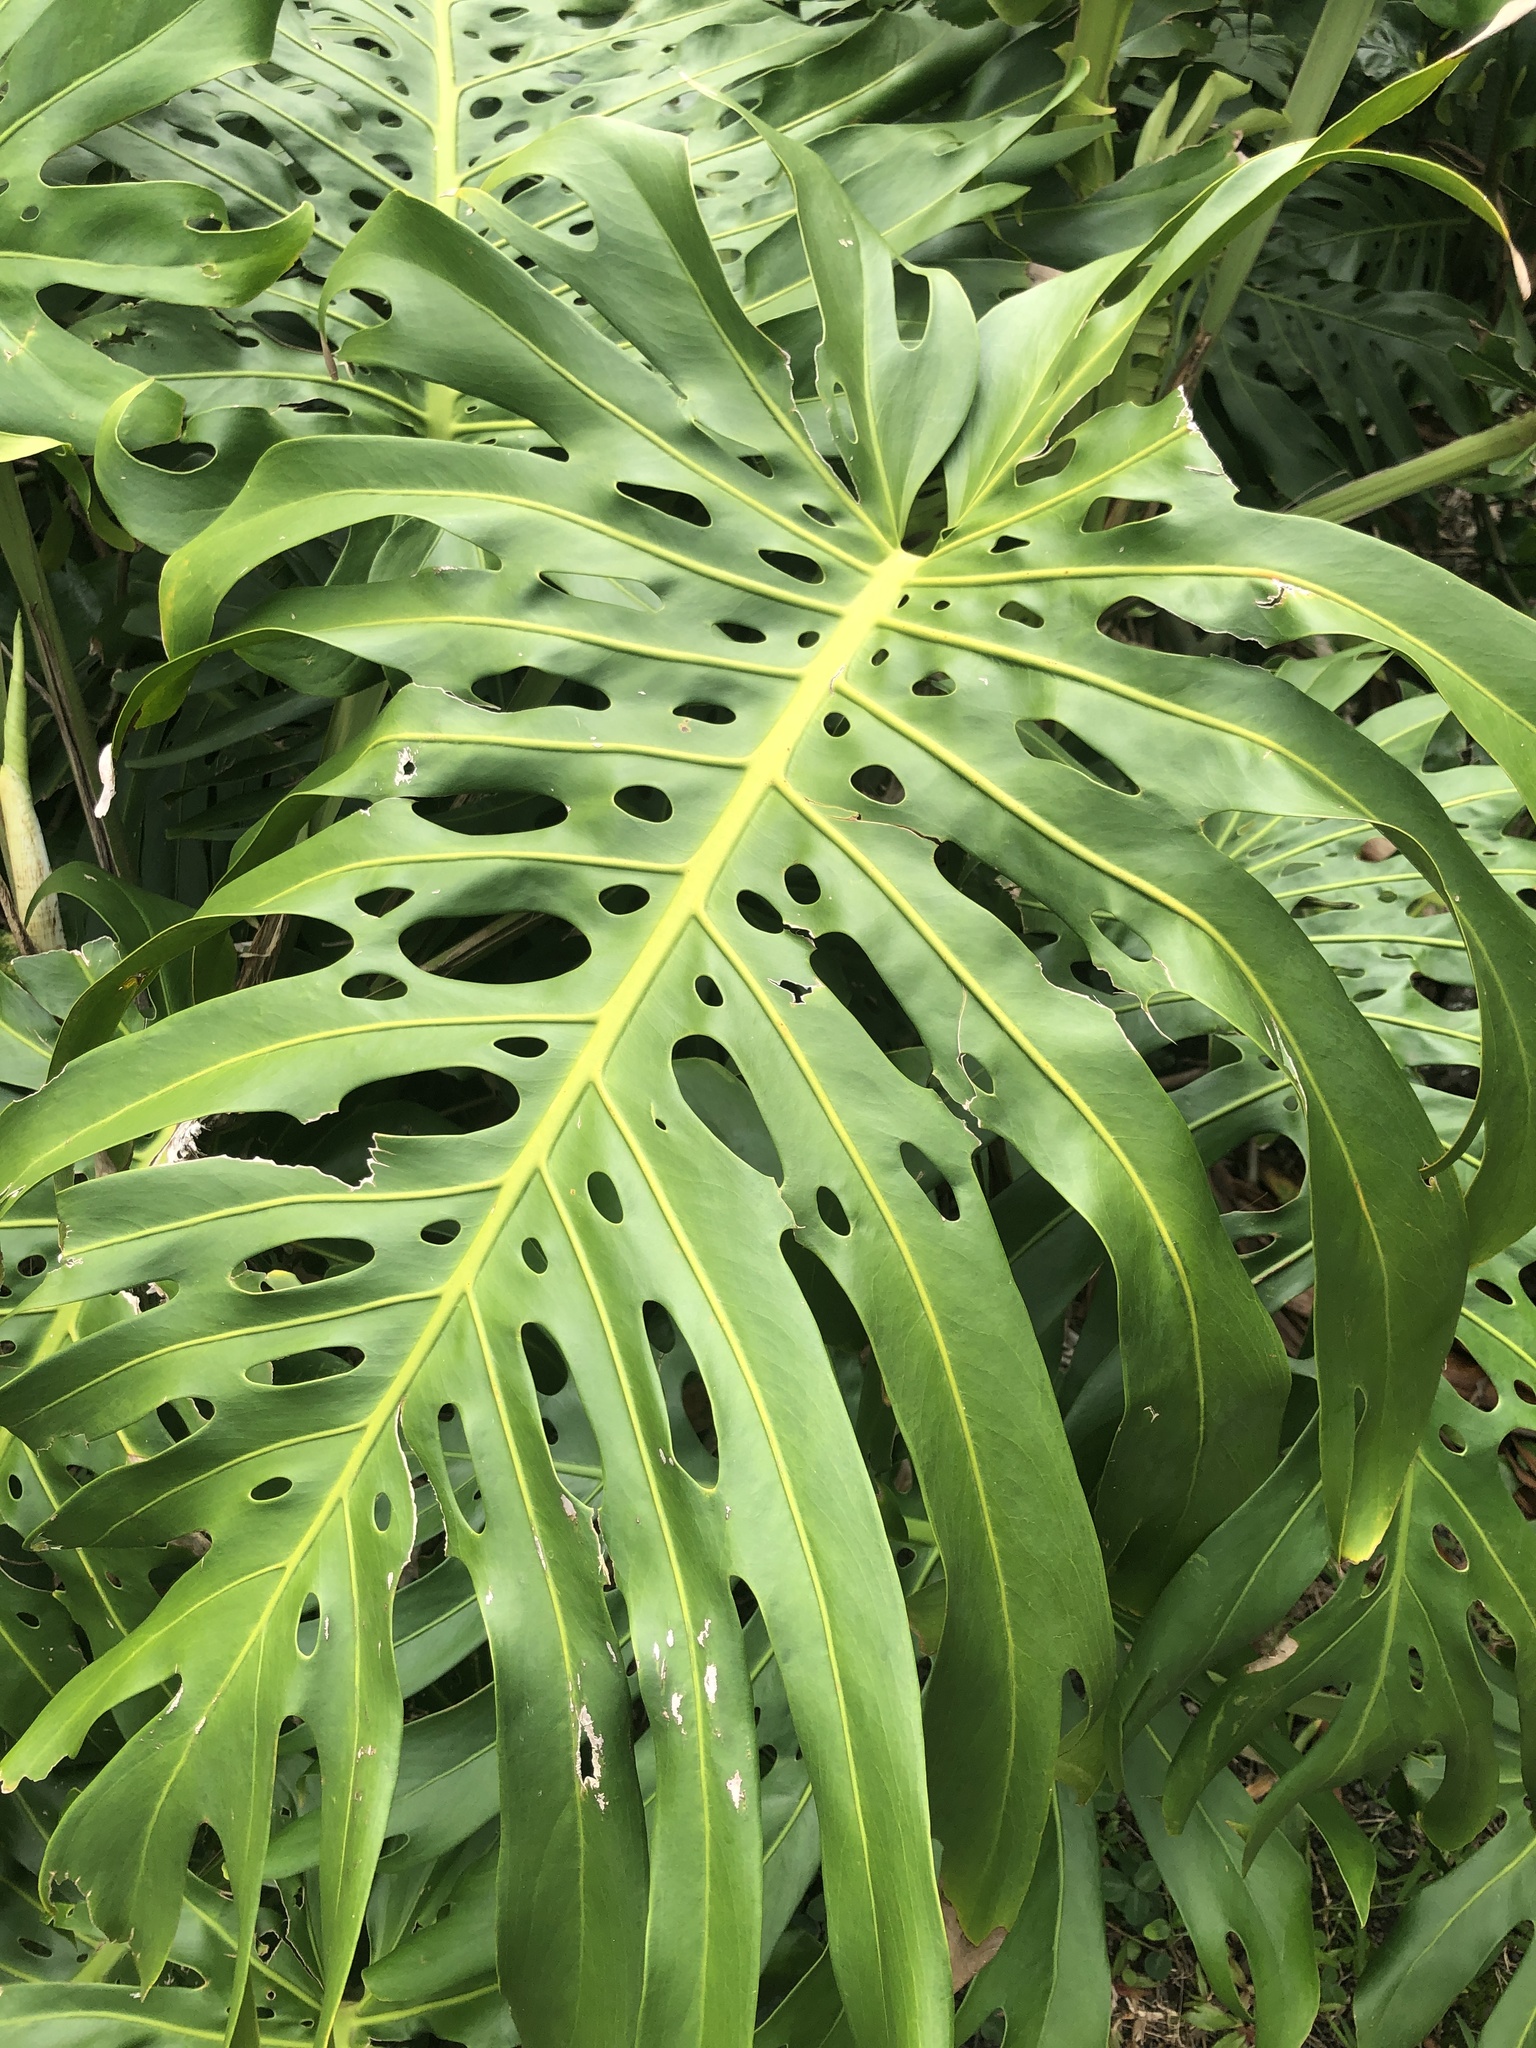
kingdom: Plantae
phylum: Tracheophyta
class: Liliopsida
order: Alismatales
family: Araceae
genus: Monstera
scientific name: Monstera deliciosa
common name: Cut-leaf-philodendron
